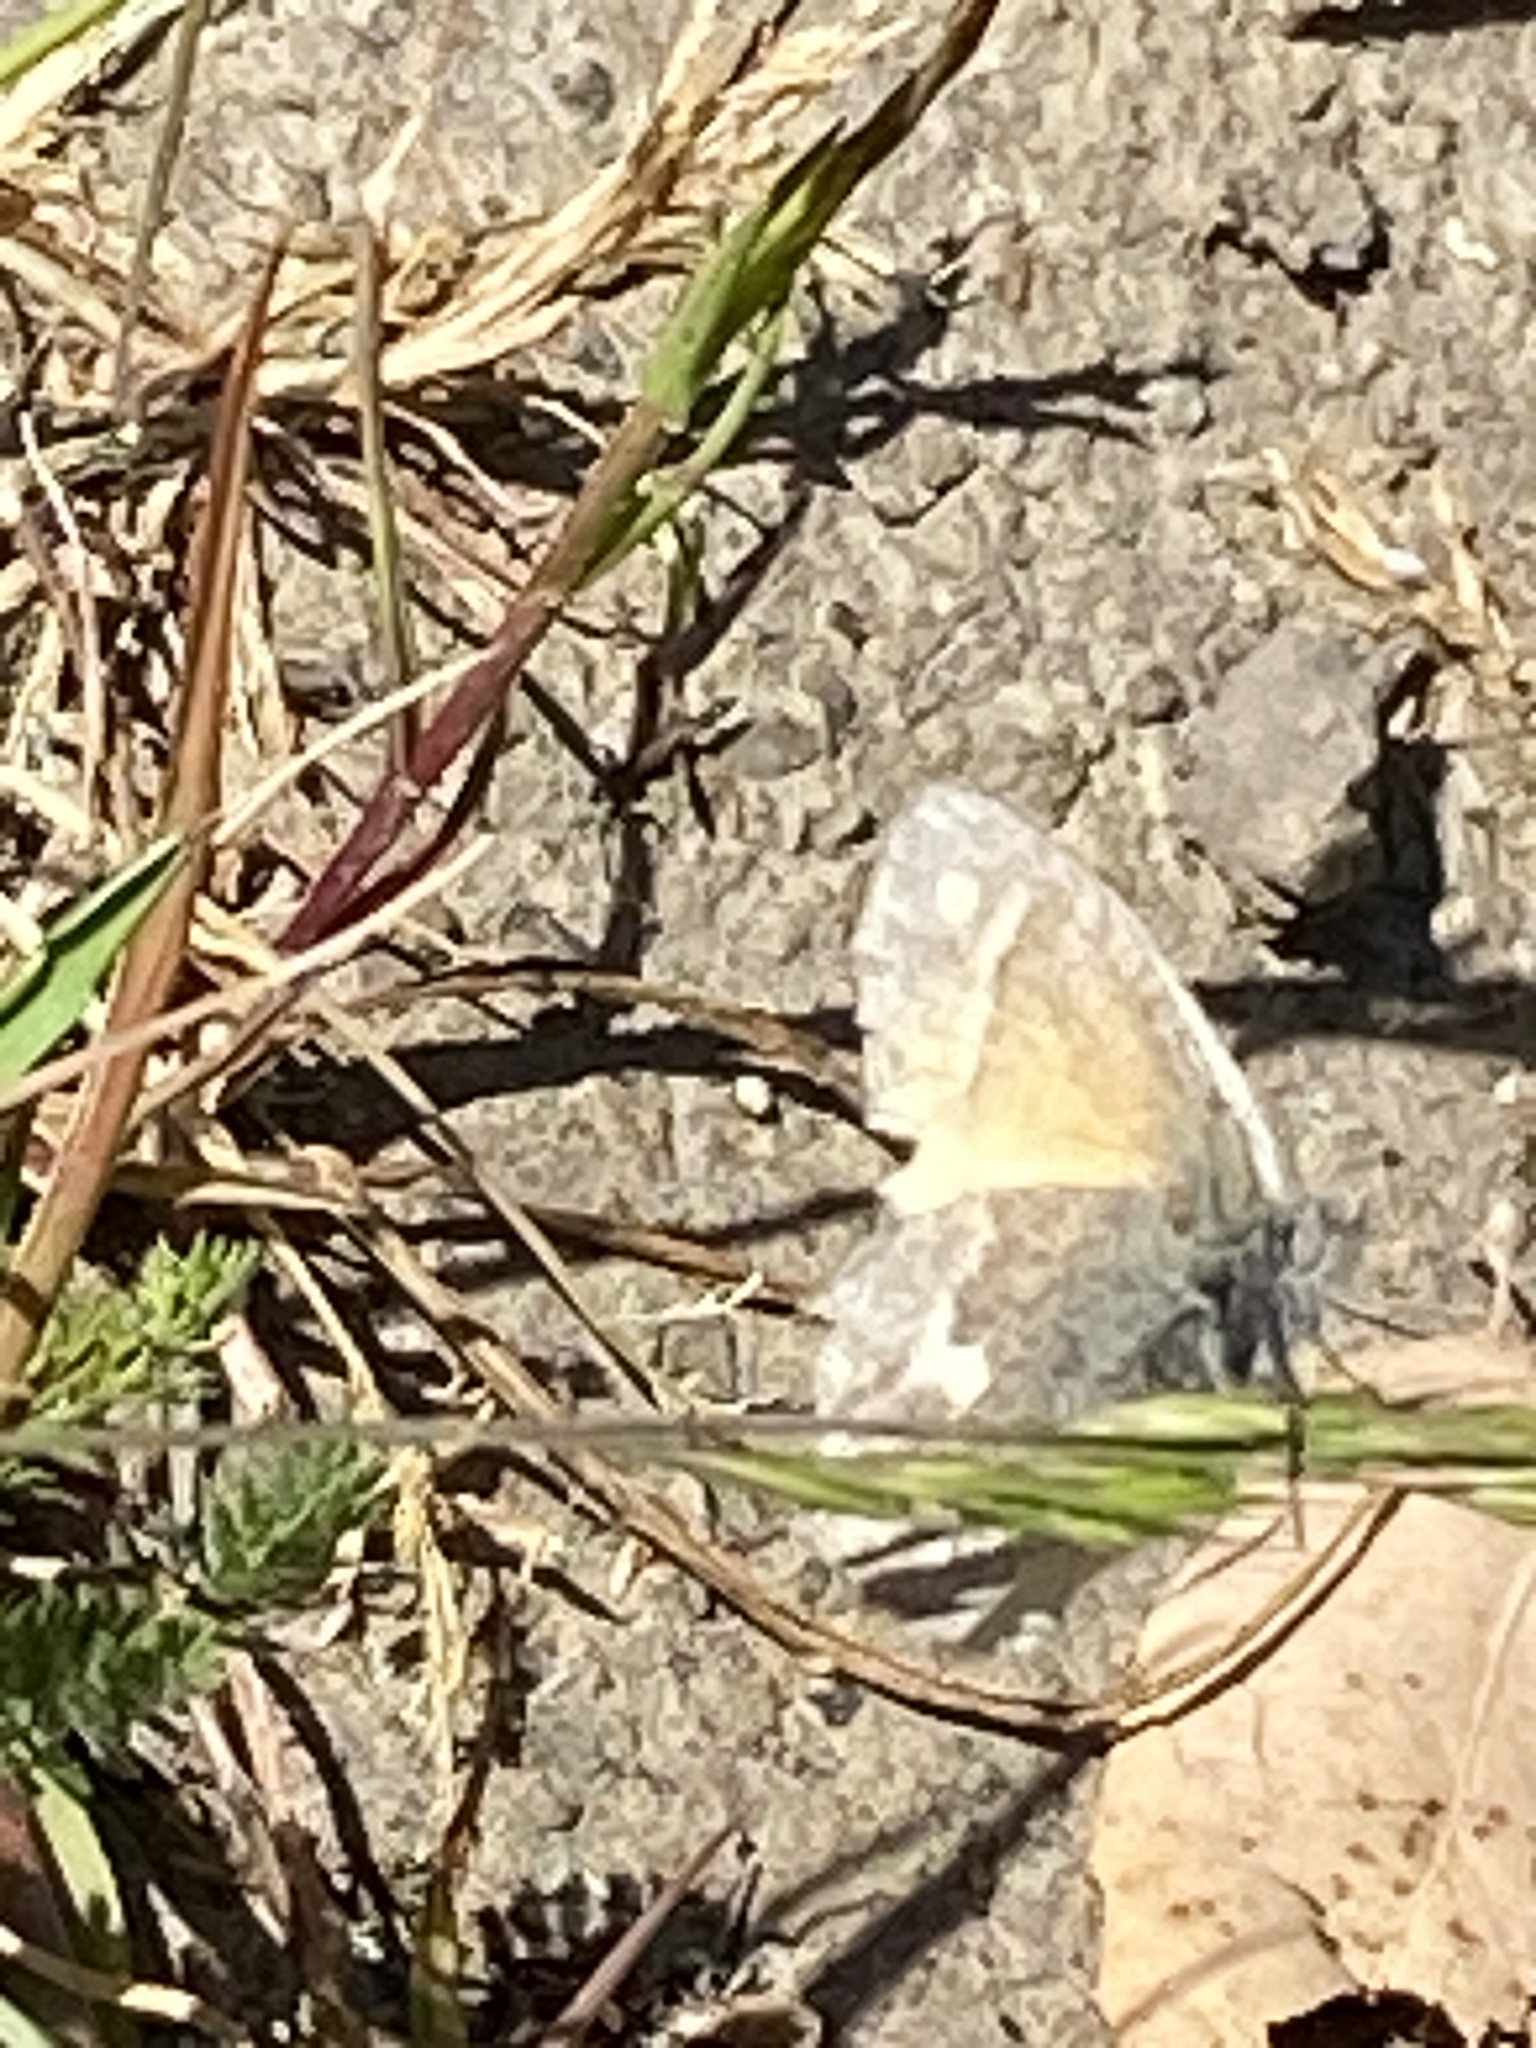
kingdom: Animalia
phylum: Arthropoda
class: Insecta
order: Lepidoptera
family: Nymphalidae
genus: Coenonympha
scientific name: Coenonympha california
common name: Common ringlet
